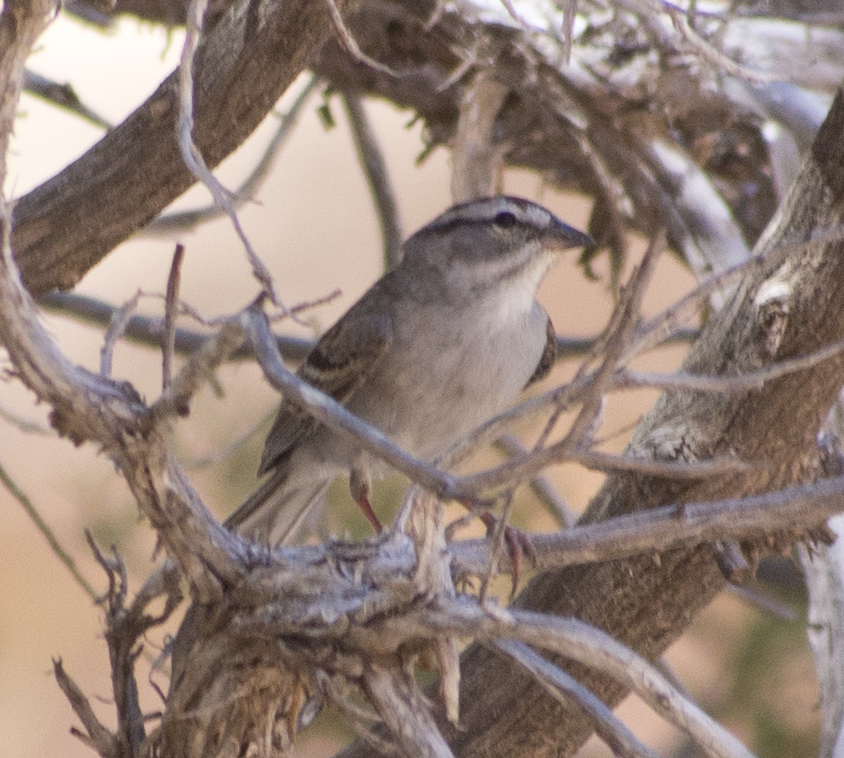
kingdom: Animalia
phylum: Chordata
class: Aves
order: Passeriformes
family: Passerellidae
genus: Spizella
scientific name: Spizella passerina
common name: Chipping sparrow
